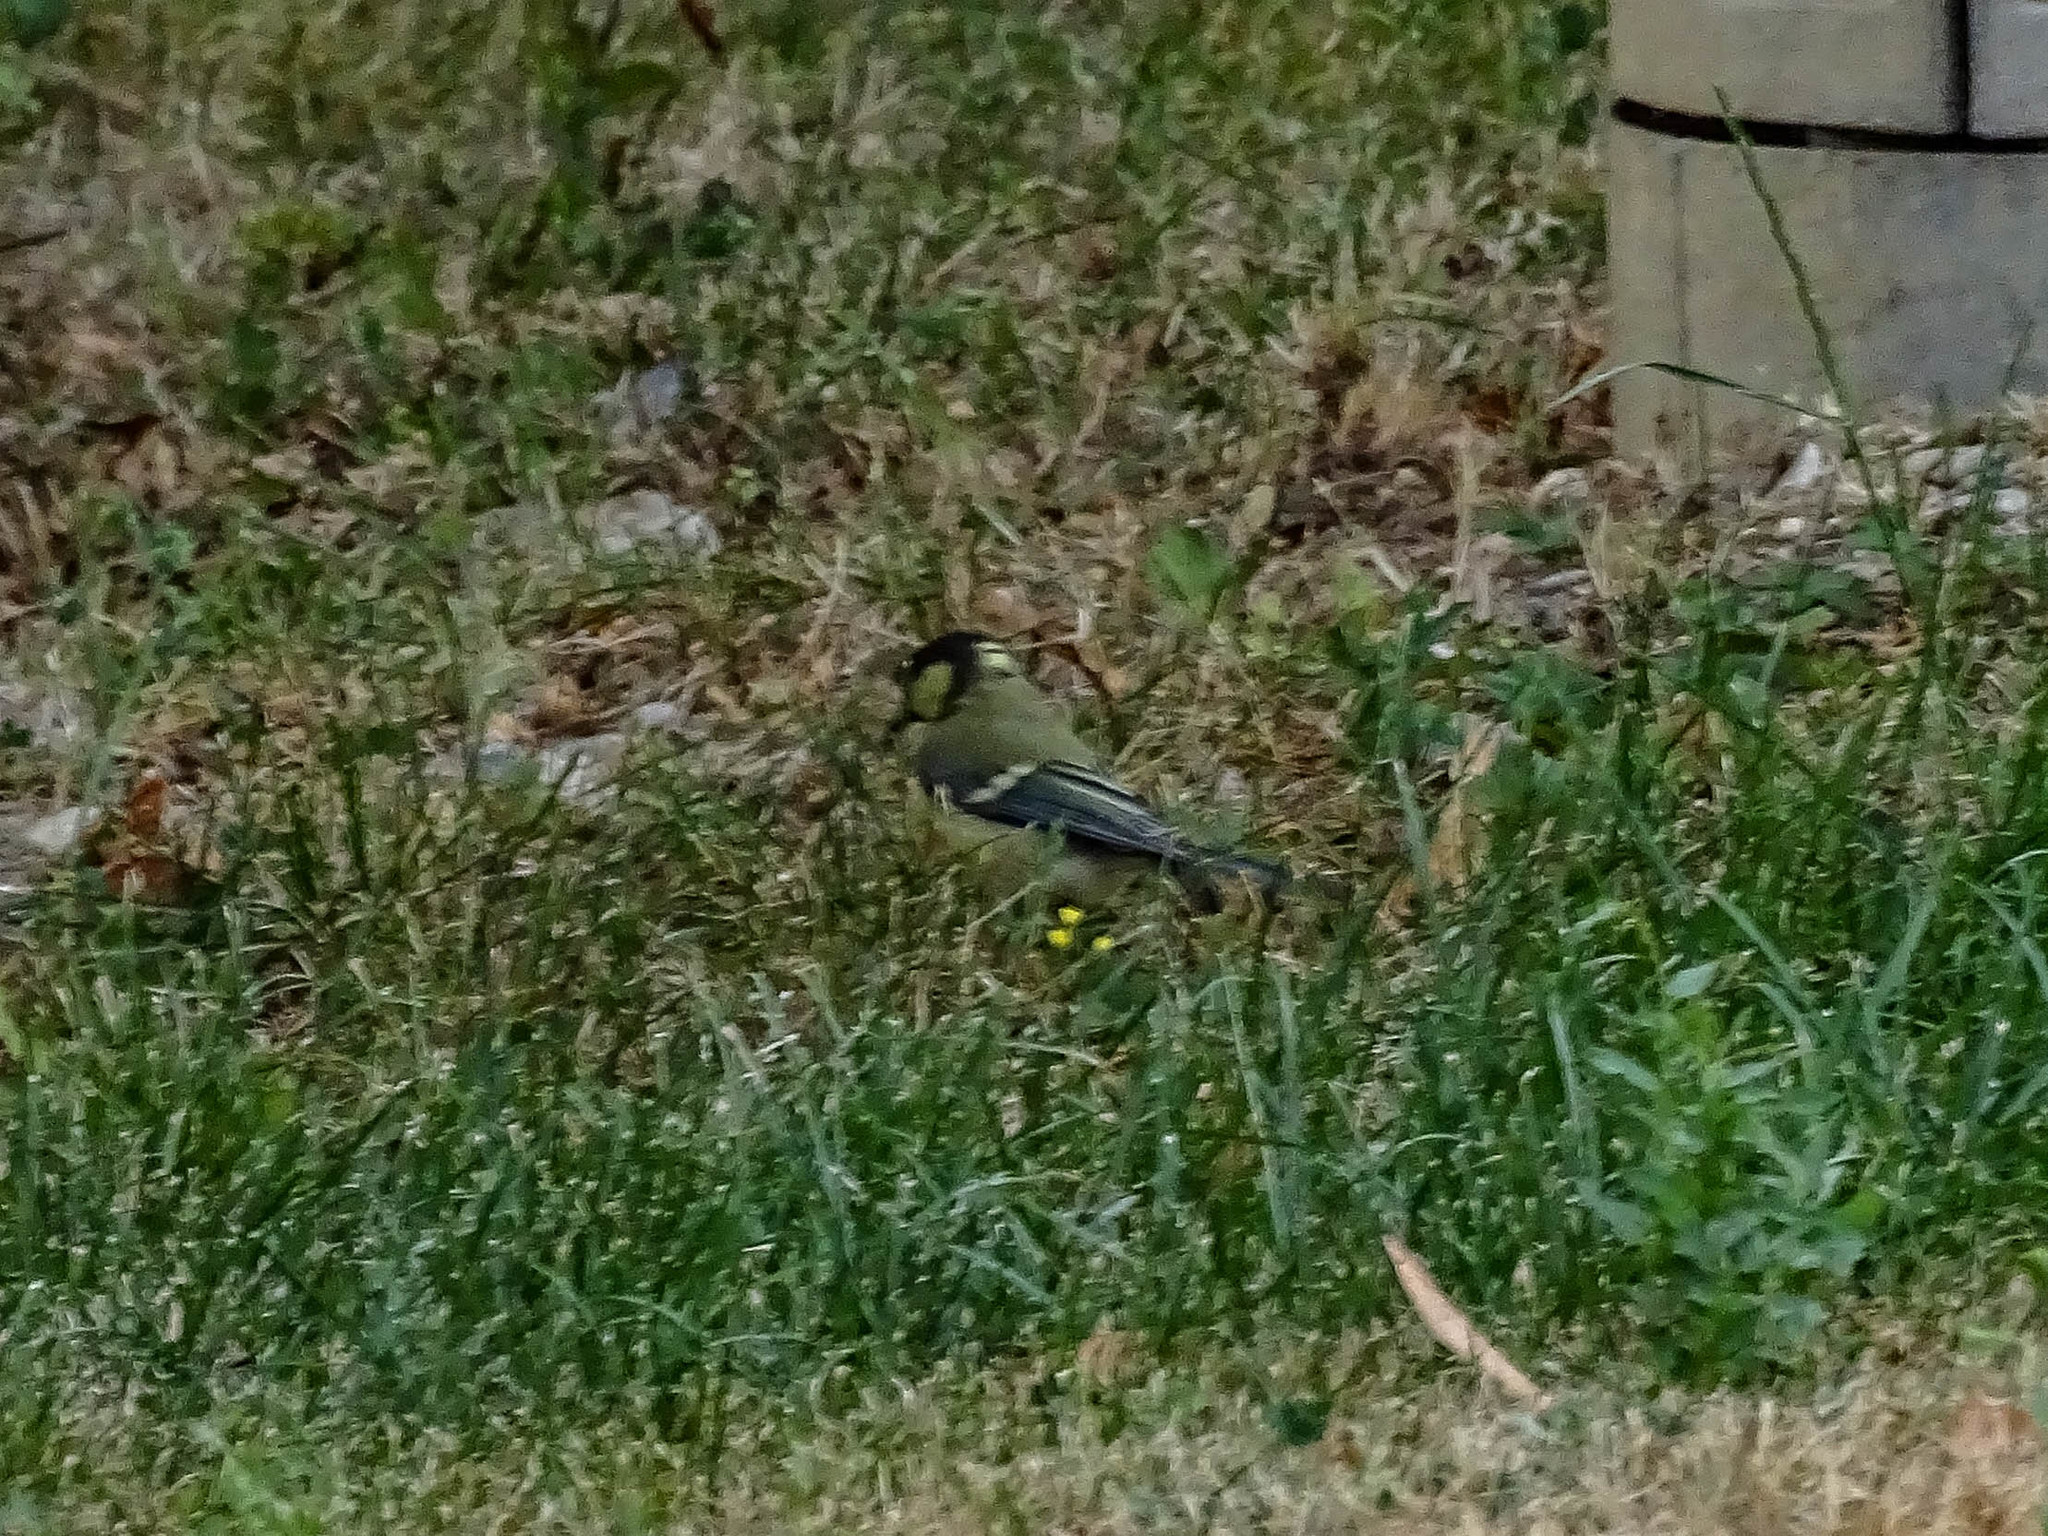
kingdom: Animalia
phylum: Chordata
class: Aves
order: Passeriformes
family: Paridae
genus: Parus
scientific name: Parus major
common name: Great tit
